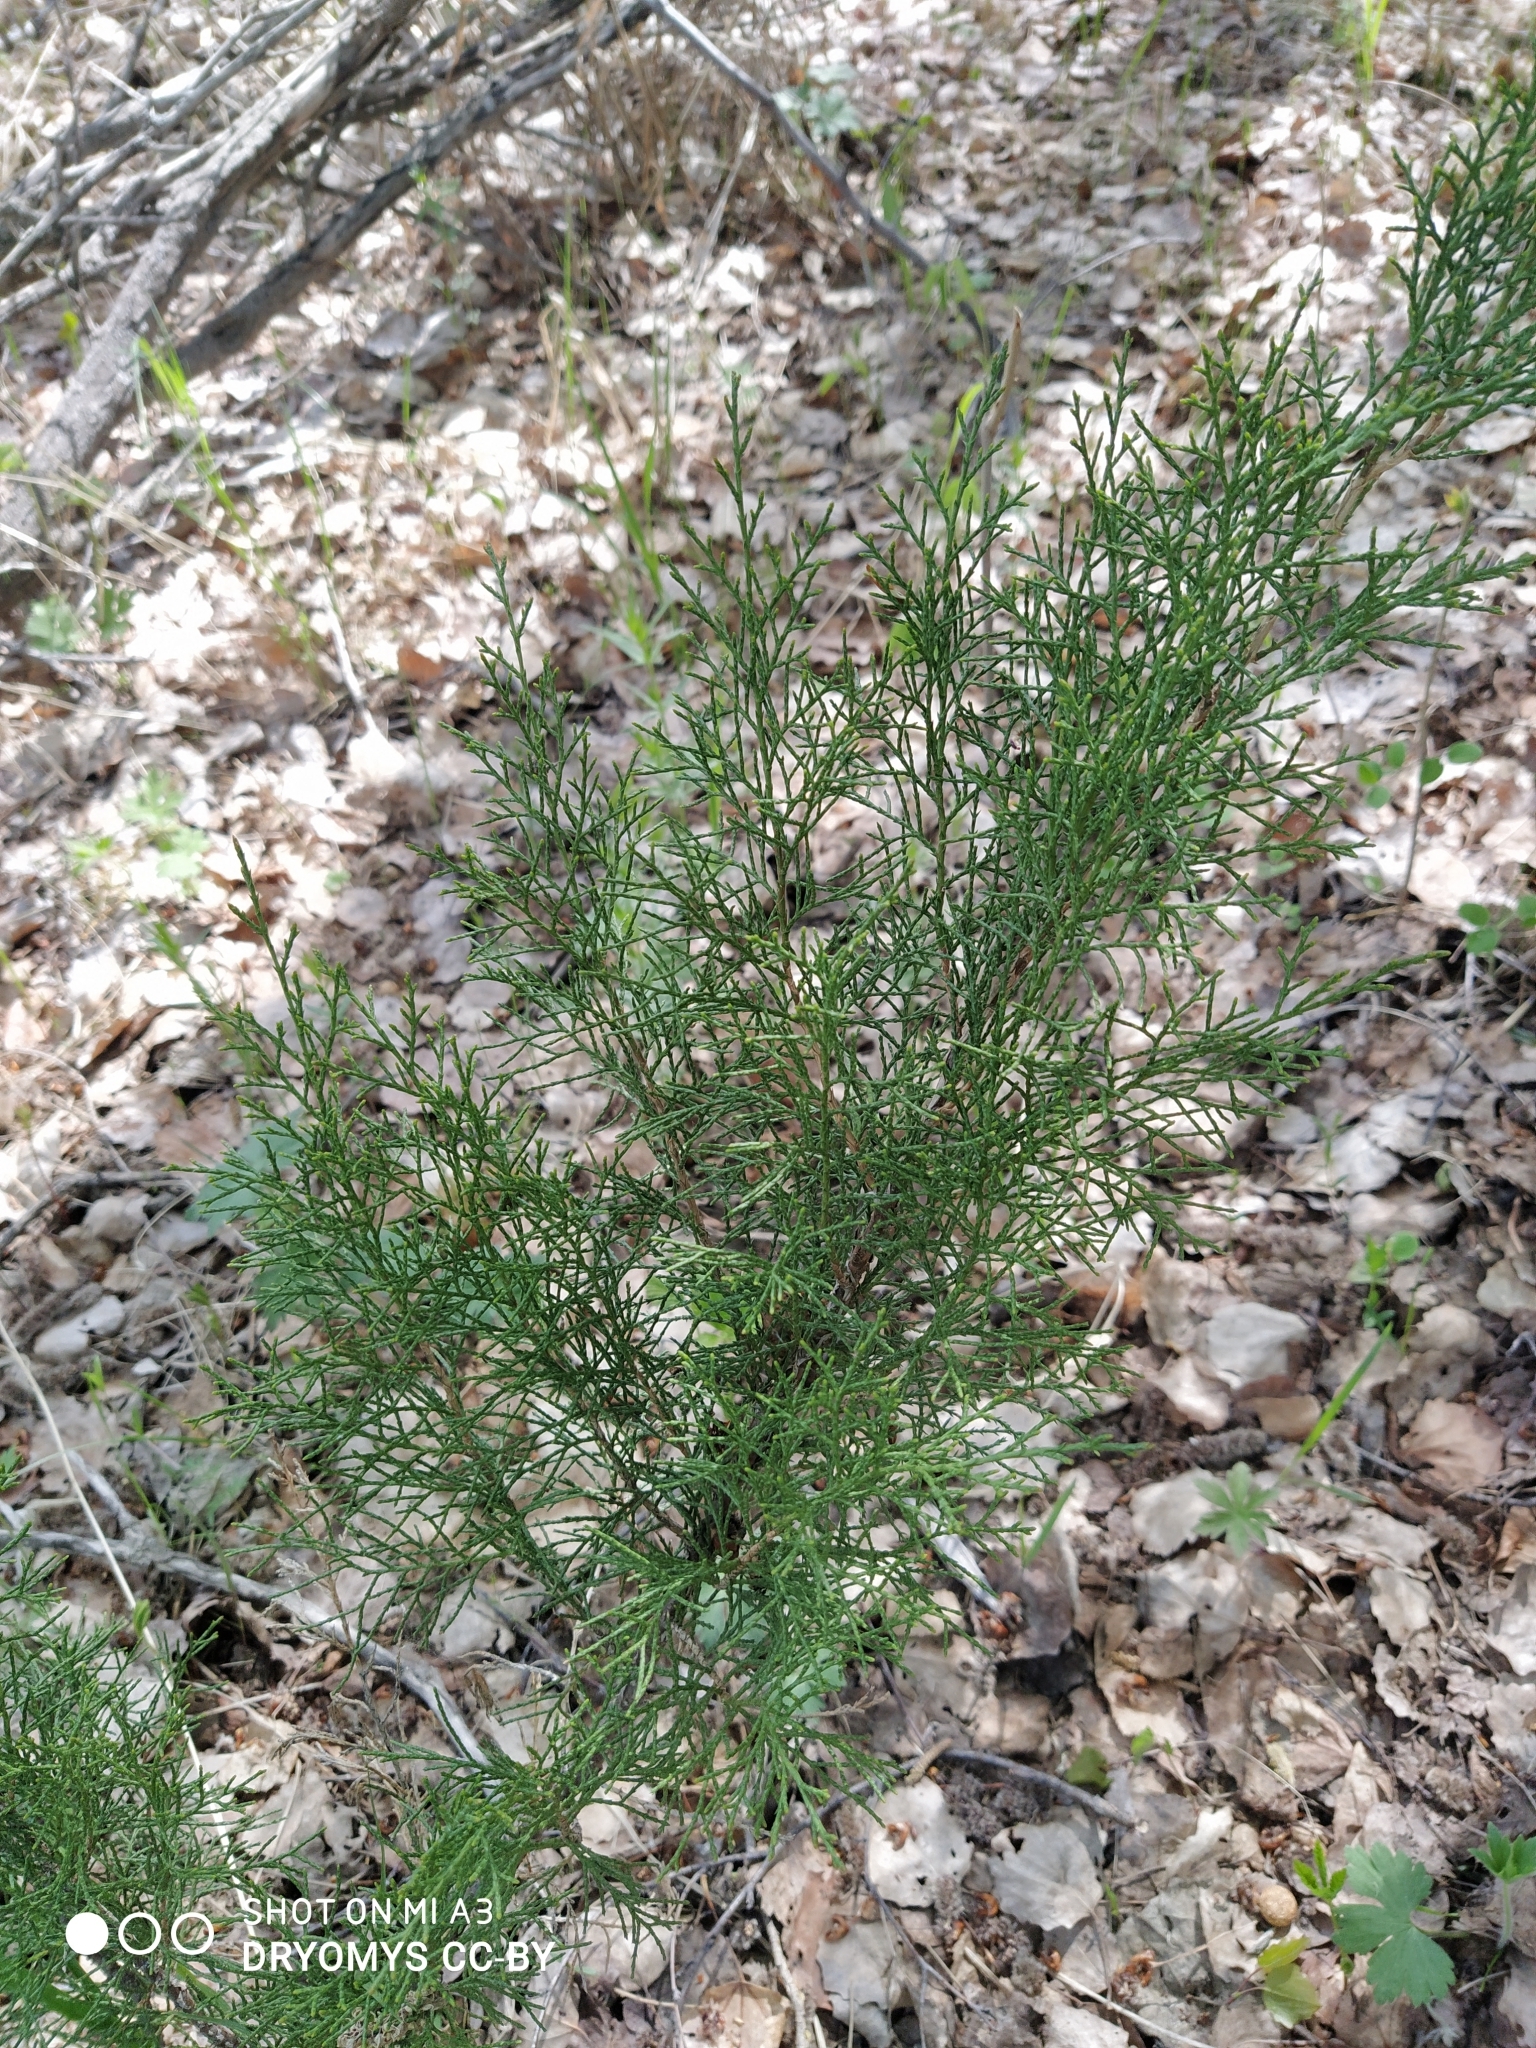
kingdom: Plantae
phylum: Tracheophyta
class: Pinopsida
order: Pinales
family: Cupressaceae
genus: Juniperus
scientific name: Juniperus sabina
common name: Savin
